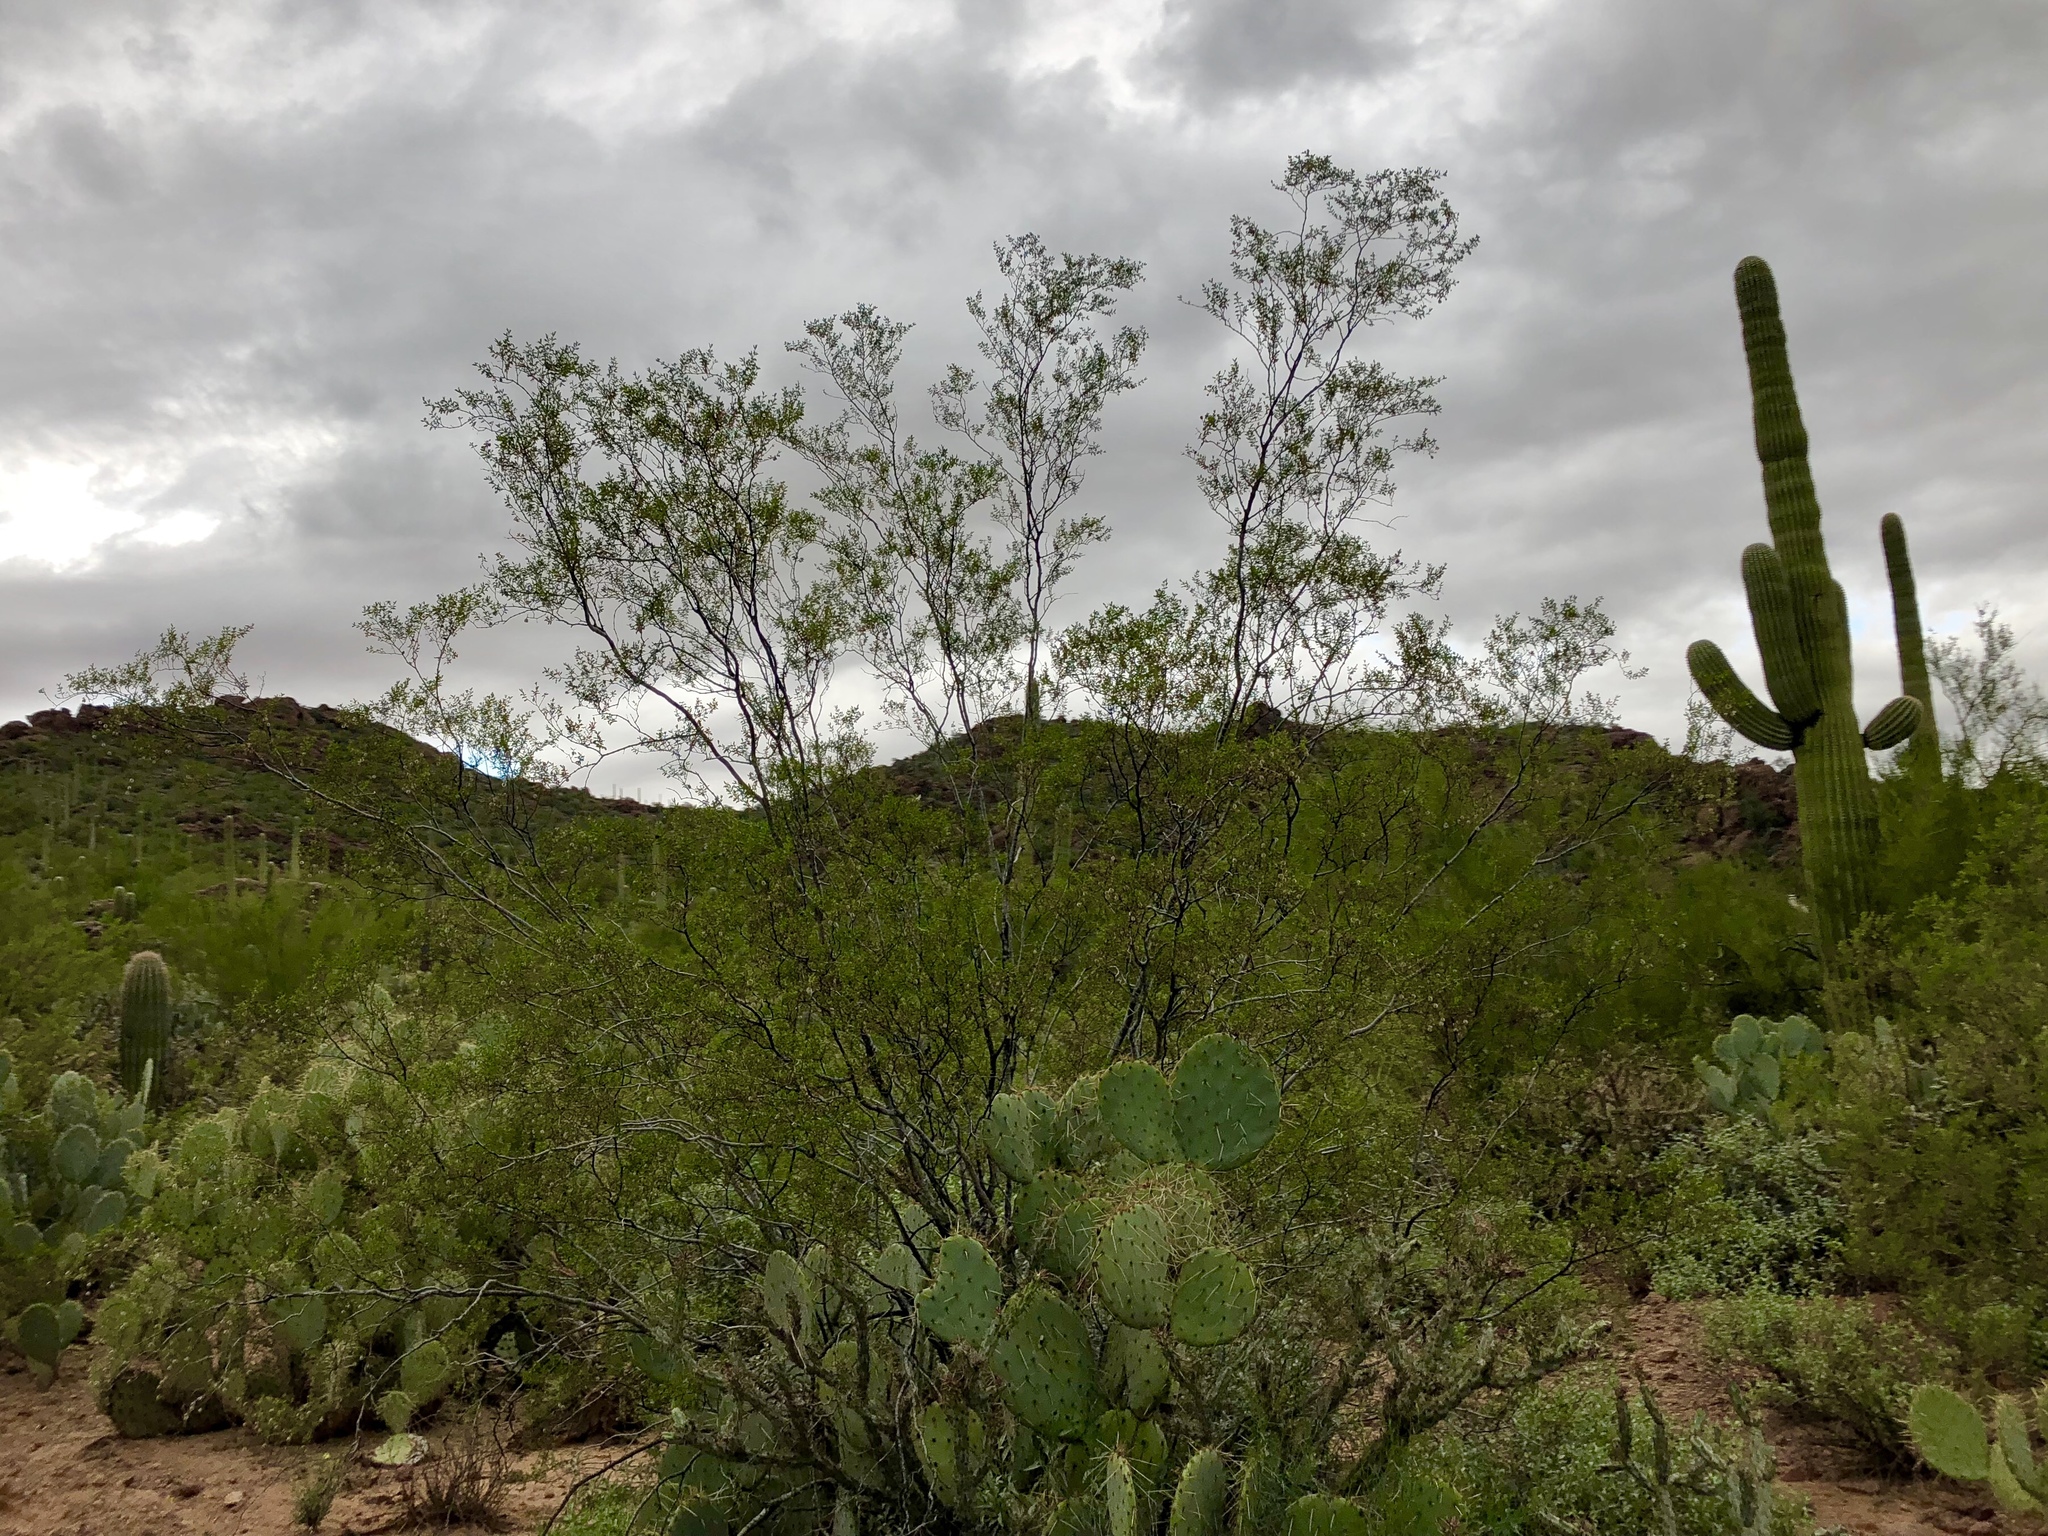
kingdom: Plantae
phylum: Tracheophyta
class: Magnoliopsida
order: Zygophyllales
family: Zygophyllaceae
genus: Larrea
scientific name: Larrea tridentata
